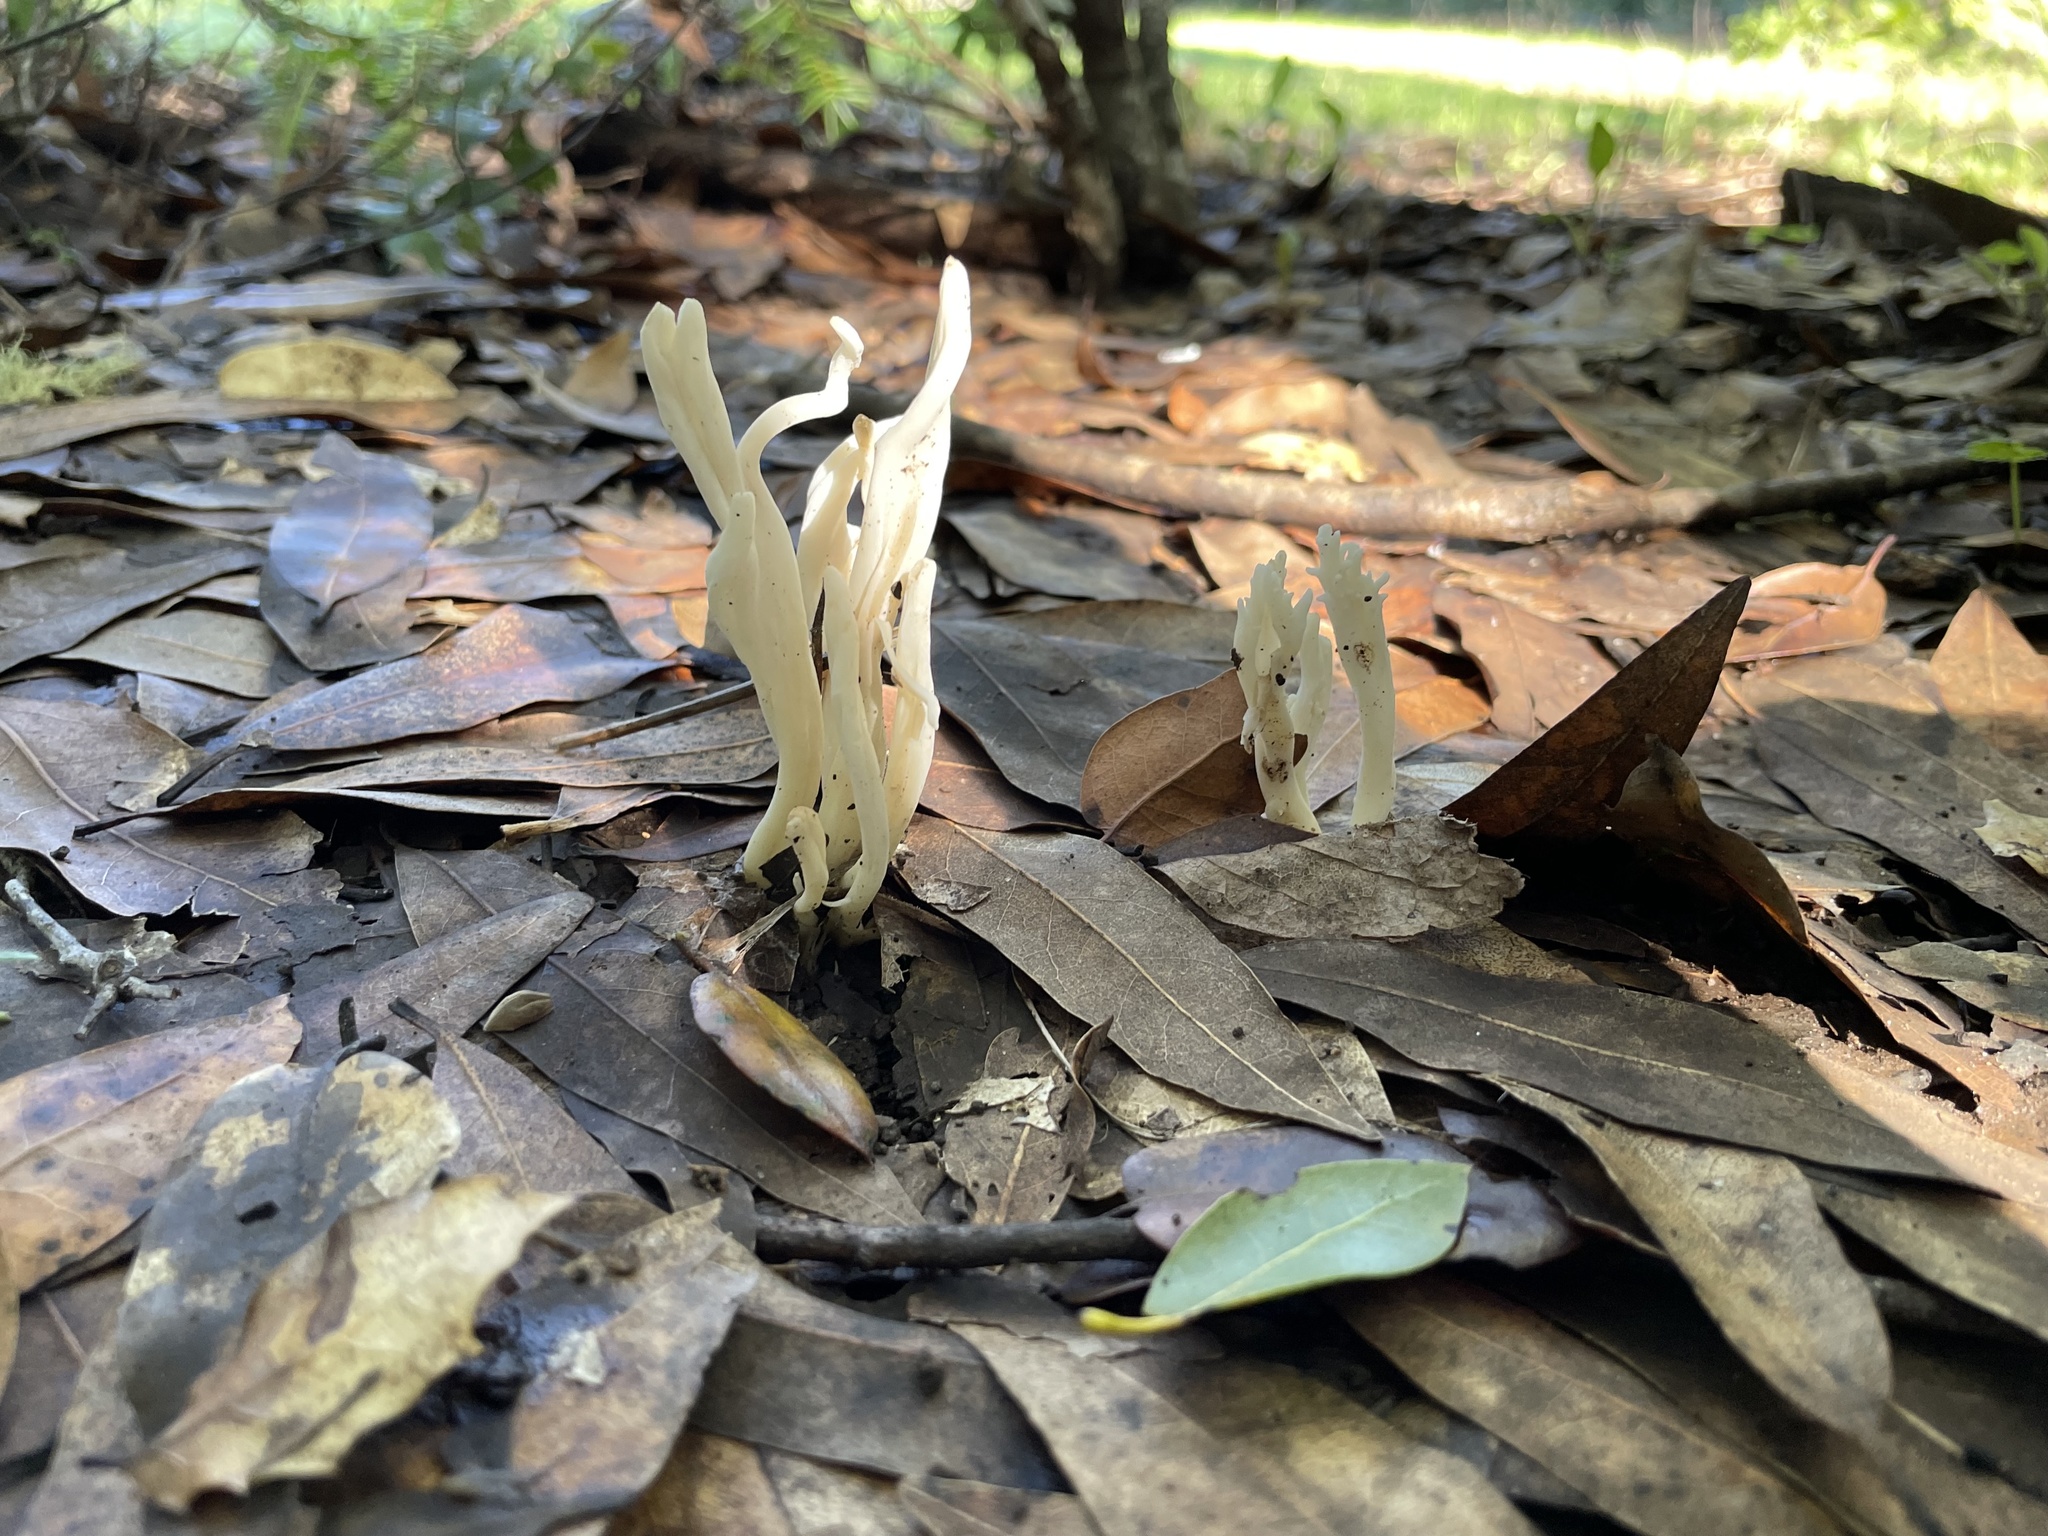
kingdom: Fungi
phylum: Basidiomycota
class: Agaricomycetes
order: Agaricales
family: Clavariaceae
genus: Clavaria
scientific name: Clavaria fragilis
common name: White spindles
